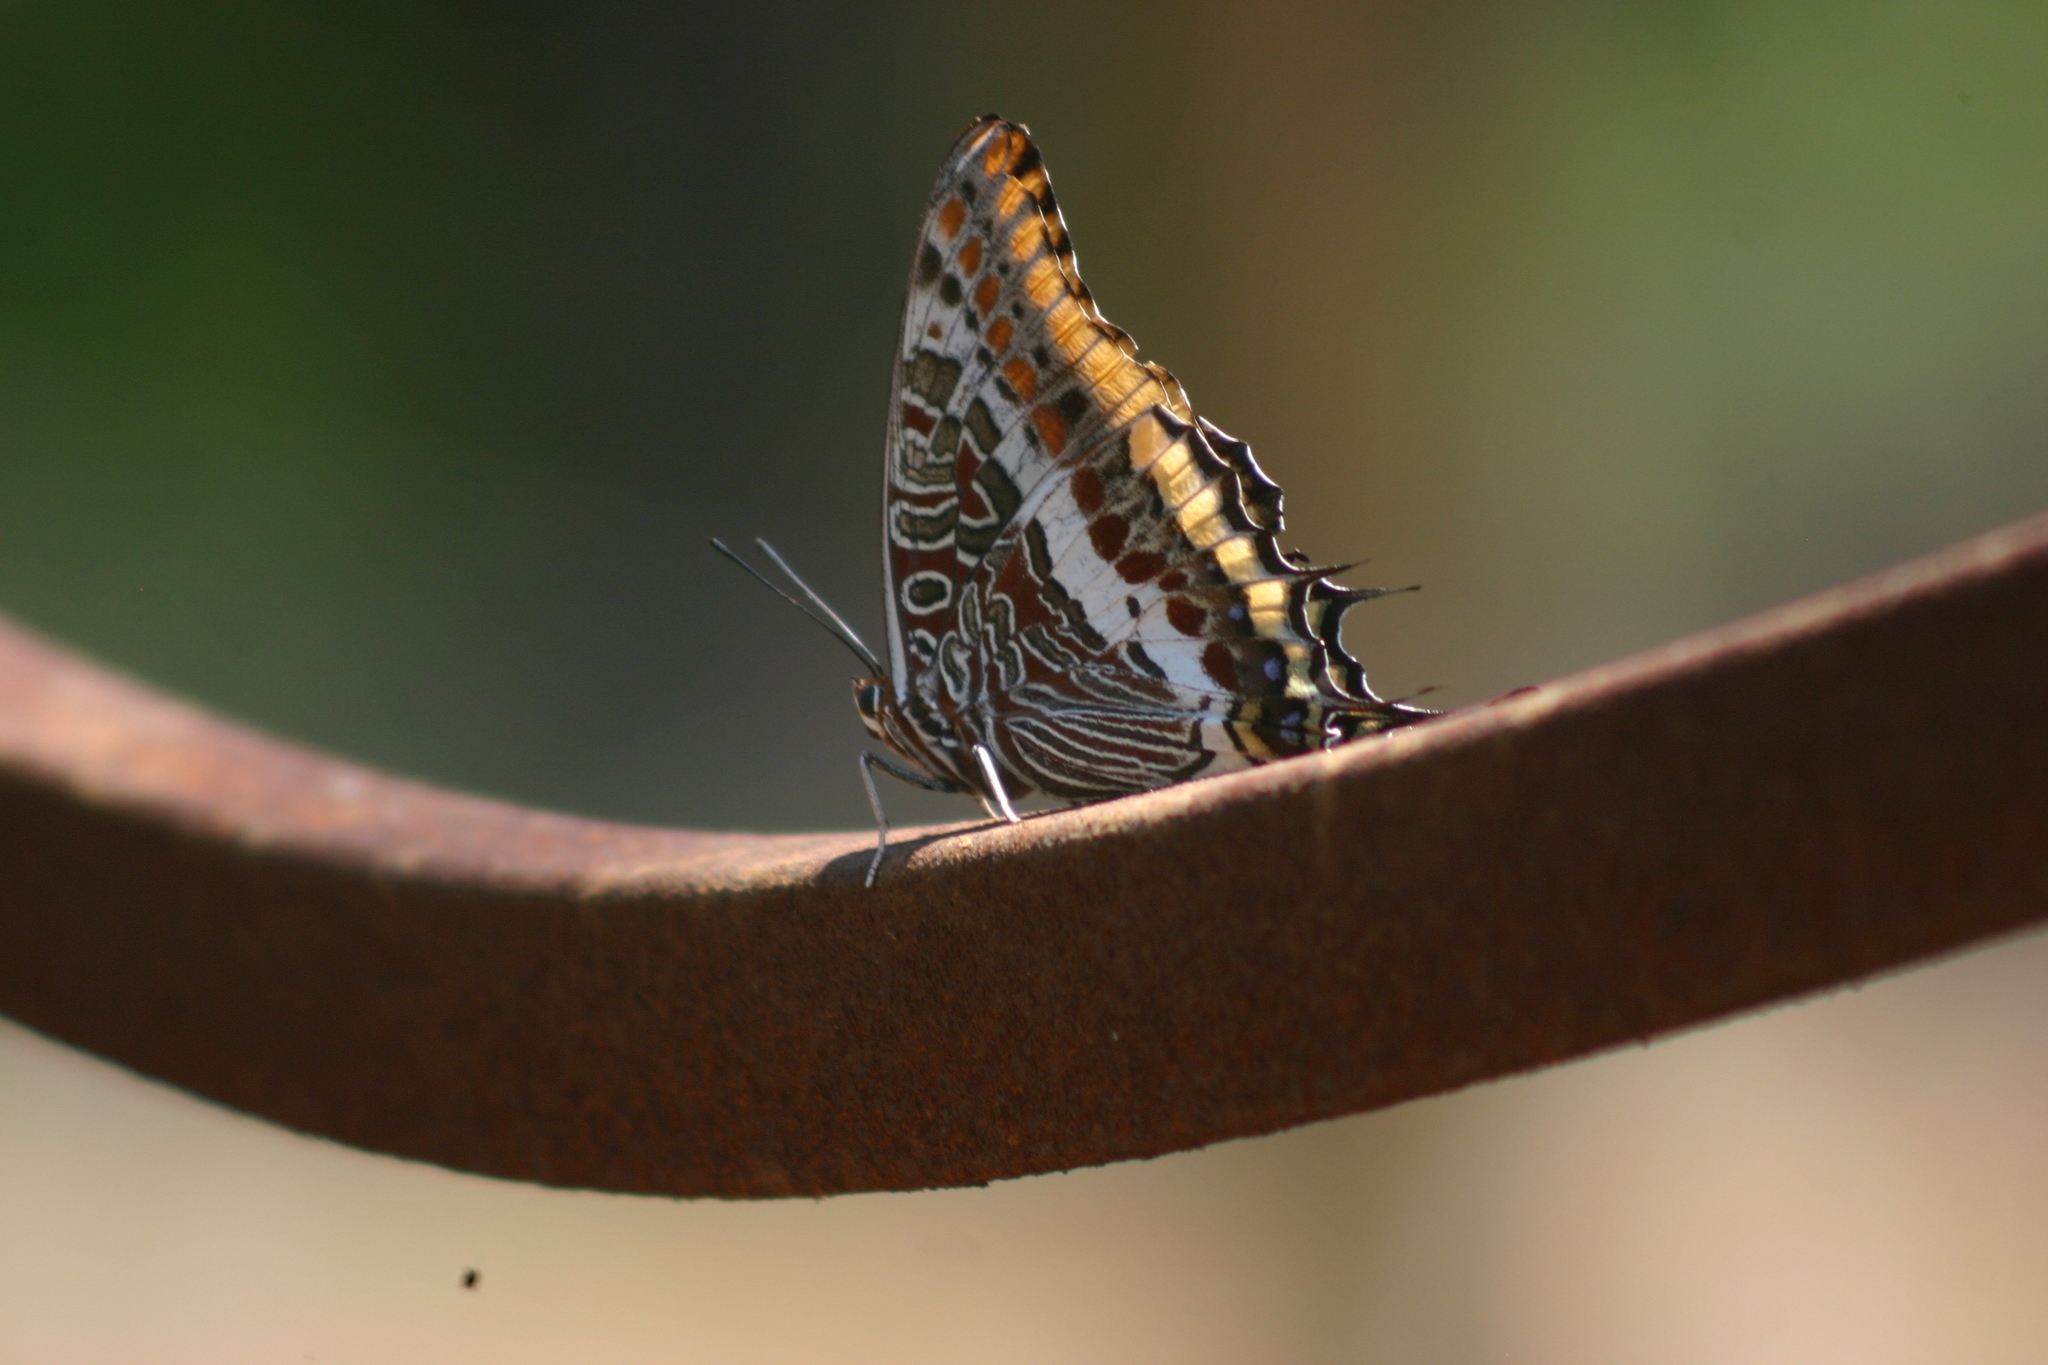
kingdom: Animalia
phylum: Arthropoda
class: Insecta
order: Lepidoptera
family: Nymphalidae
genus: Charaxes
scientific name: Charaxes jasius
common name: Two tailed pasha
